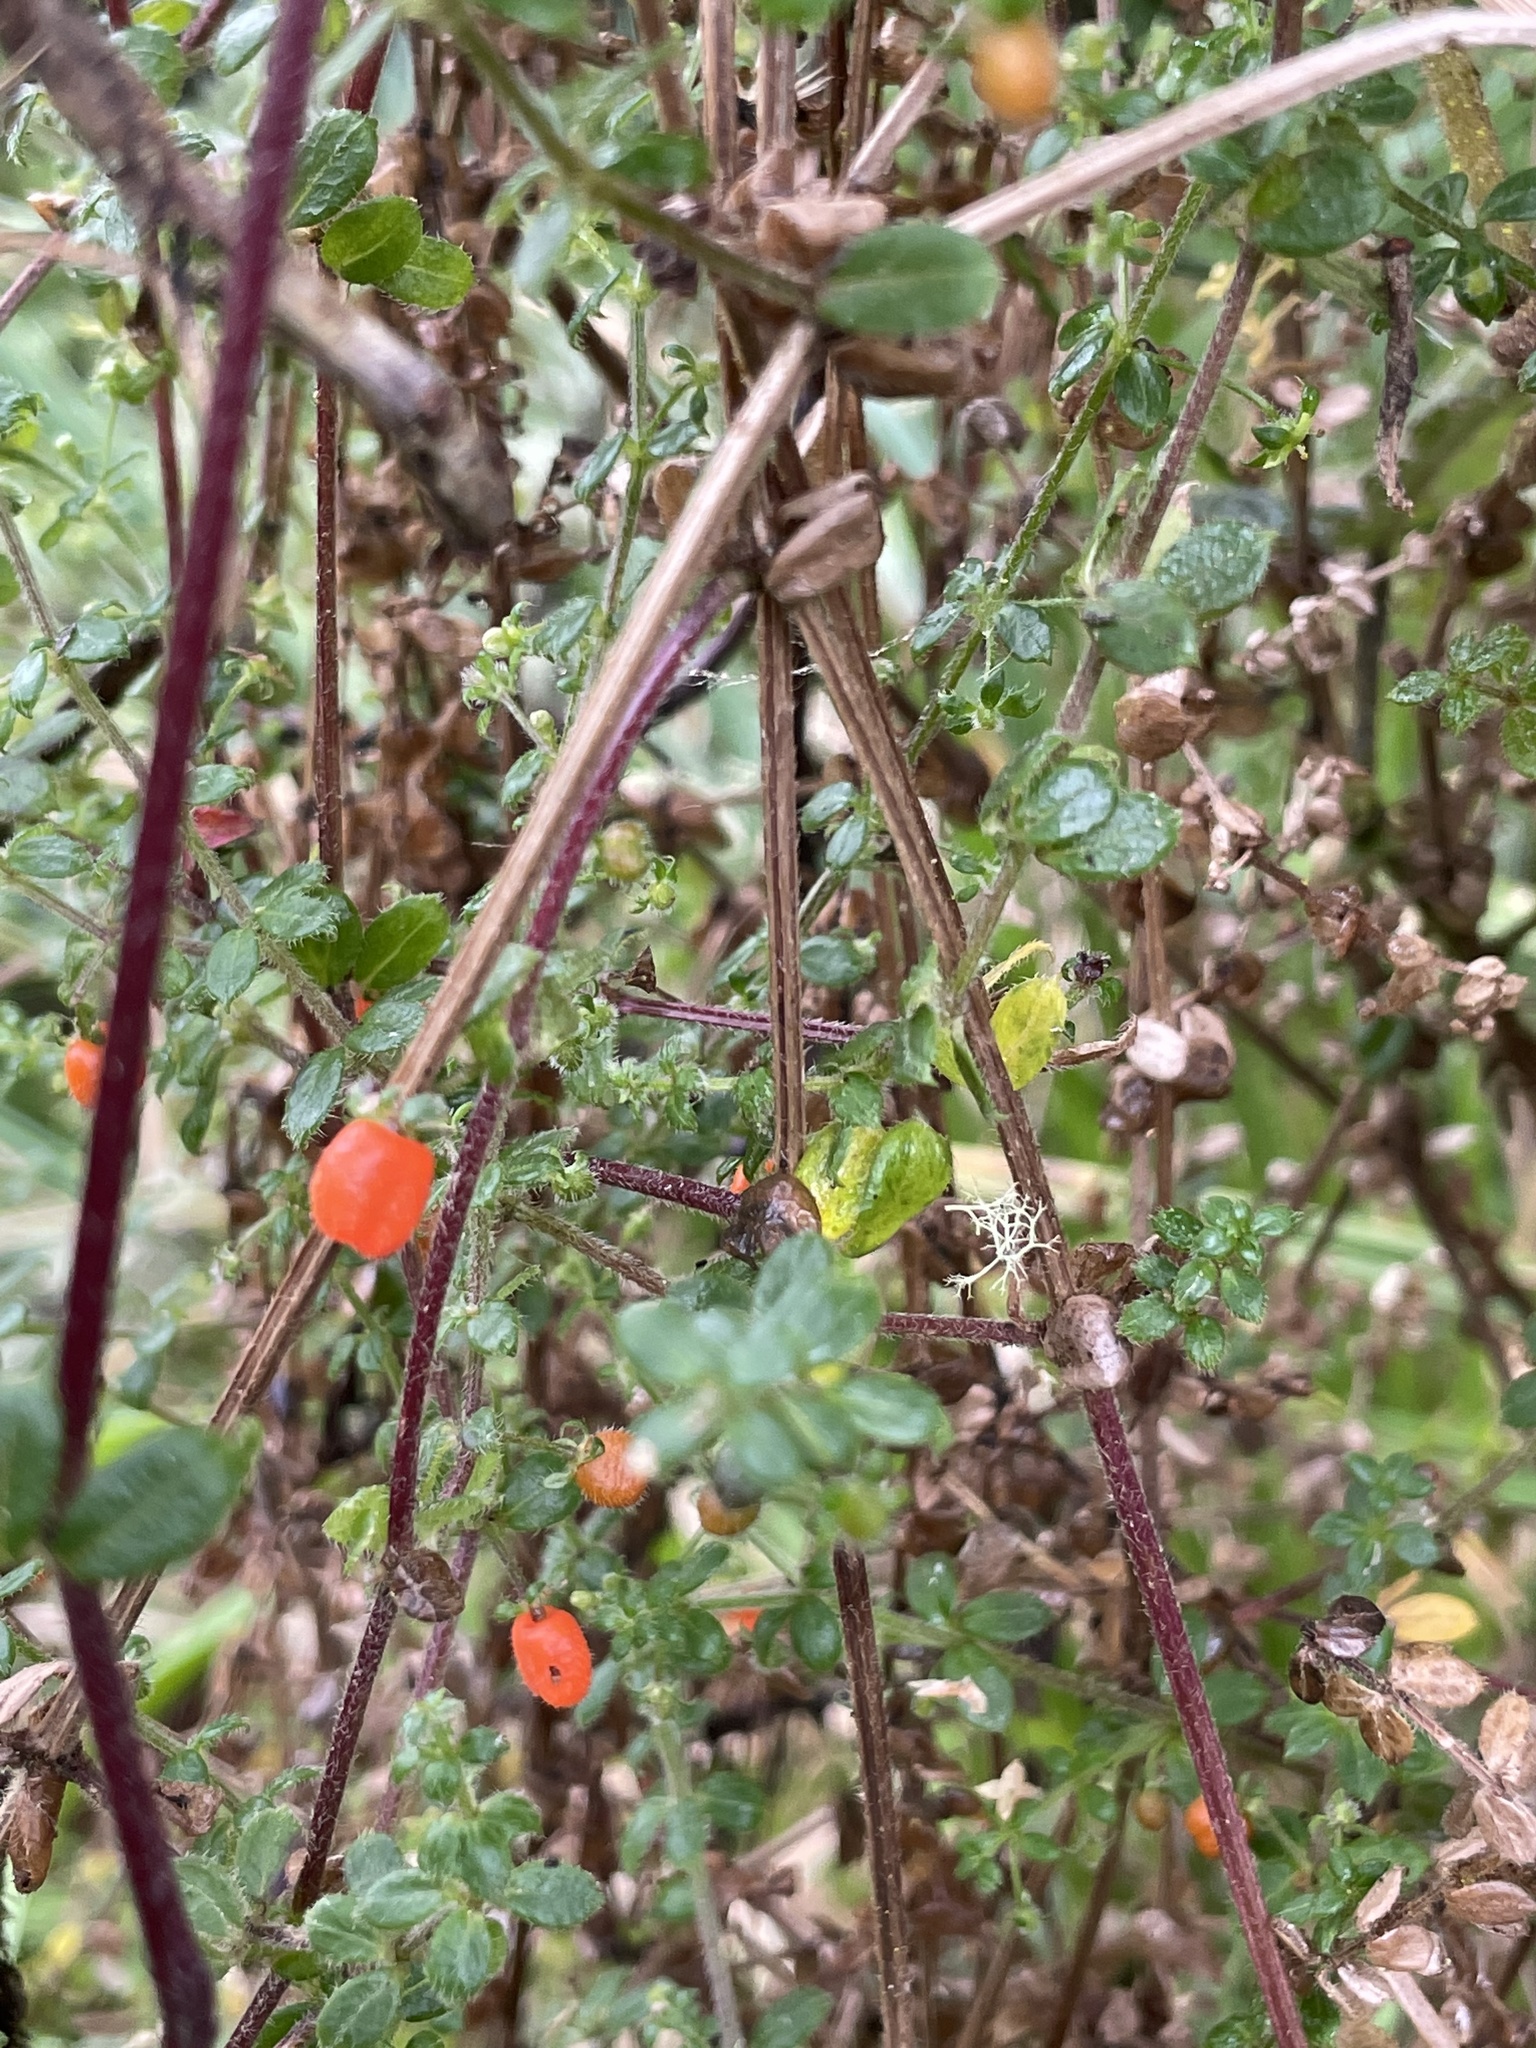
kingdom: Plantae
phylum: Tracheophyta
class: Magnoliopsida
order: Gentianales
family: Rubiaceae
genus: Galium
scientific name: Galium hypocarpium
